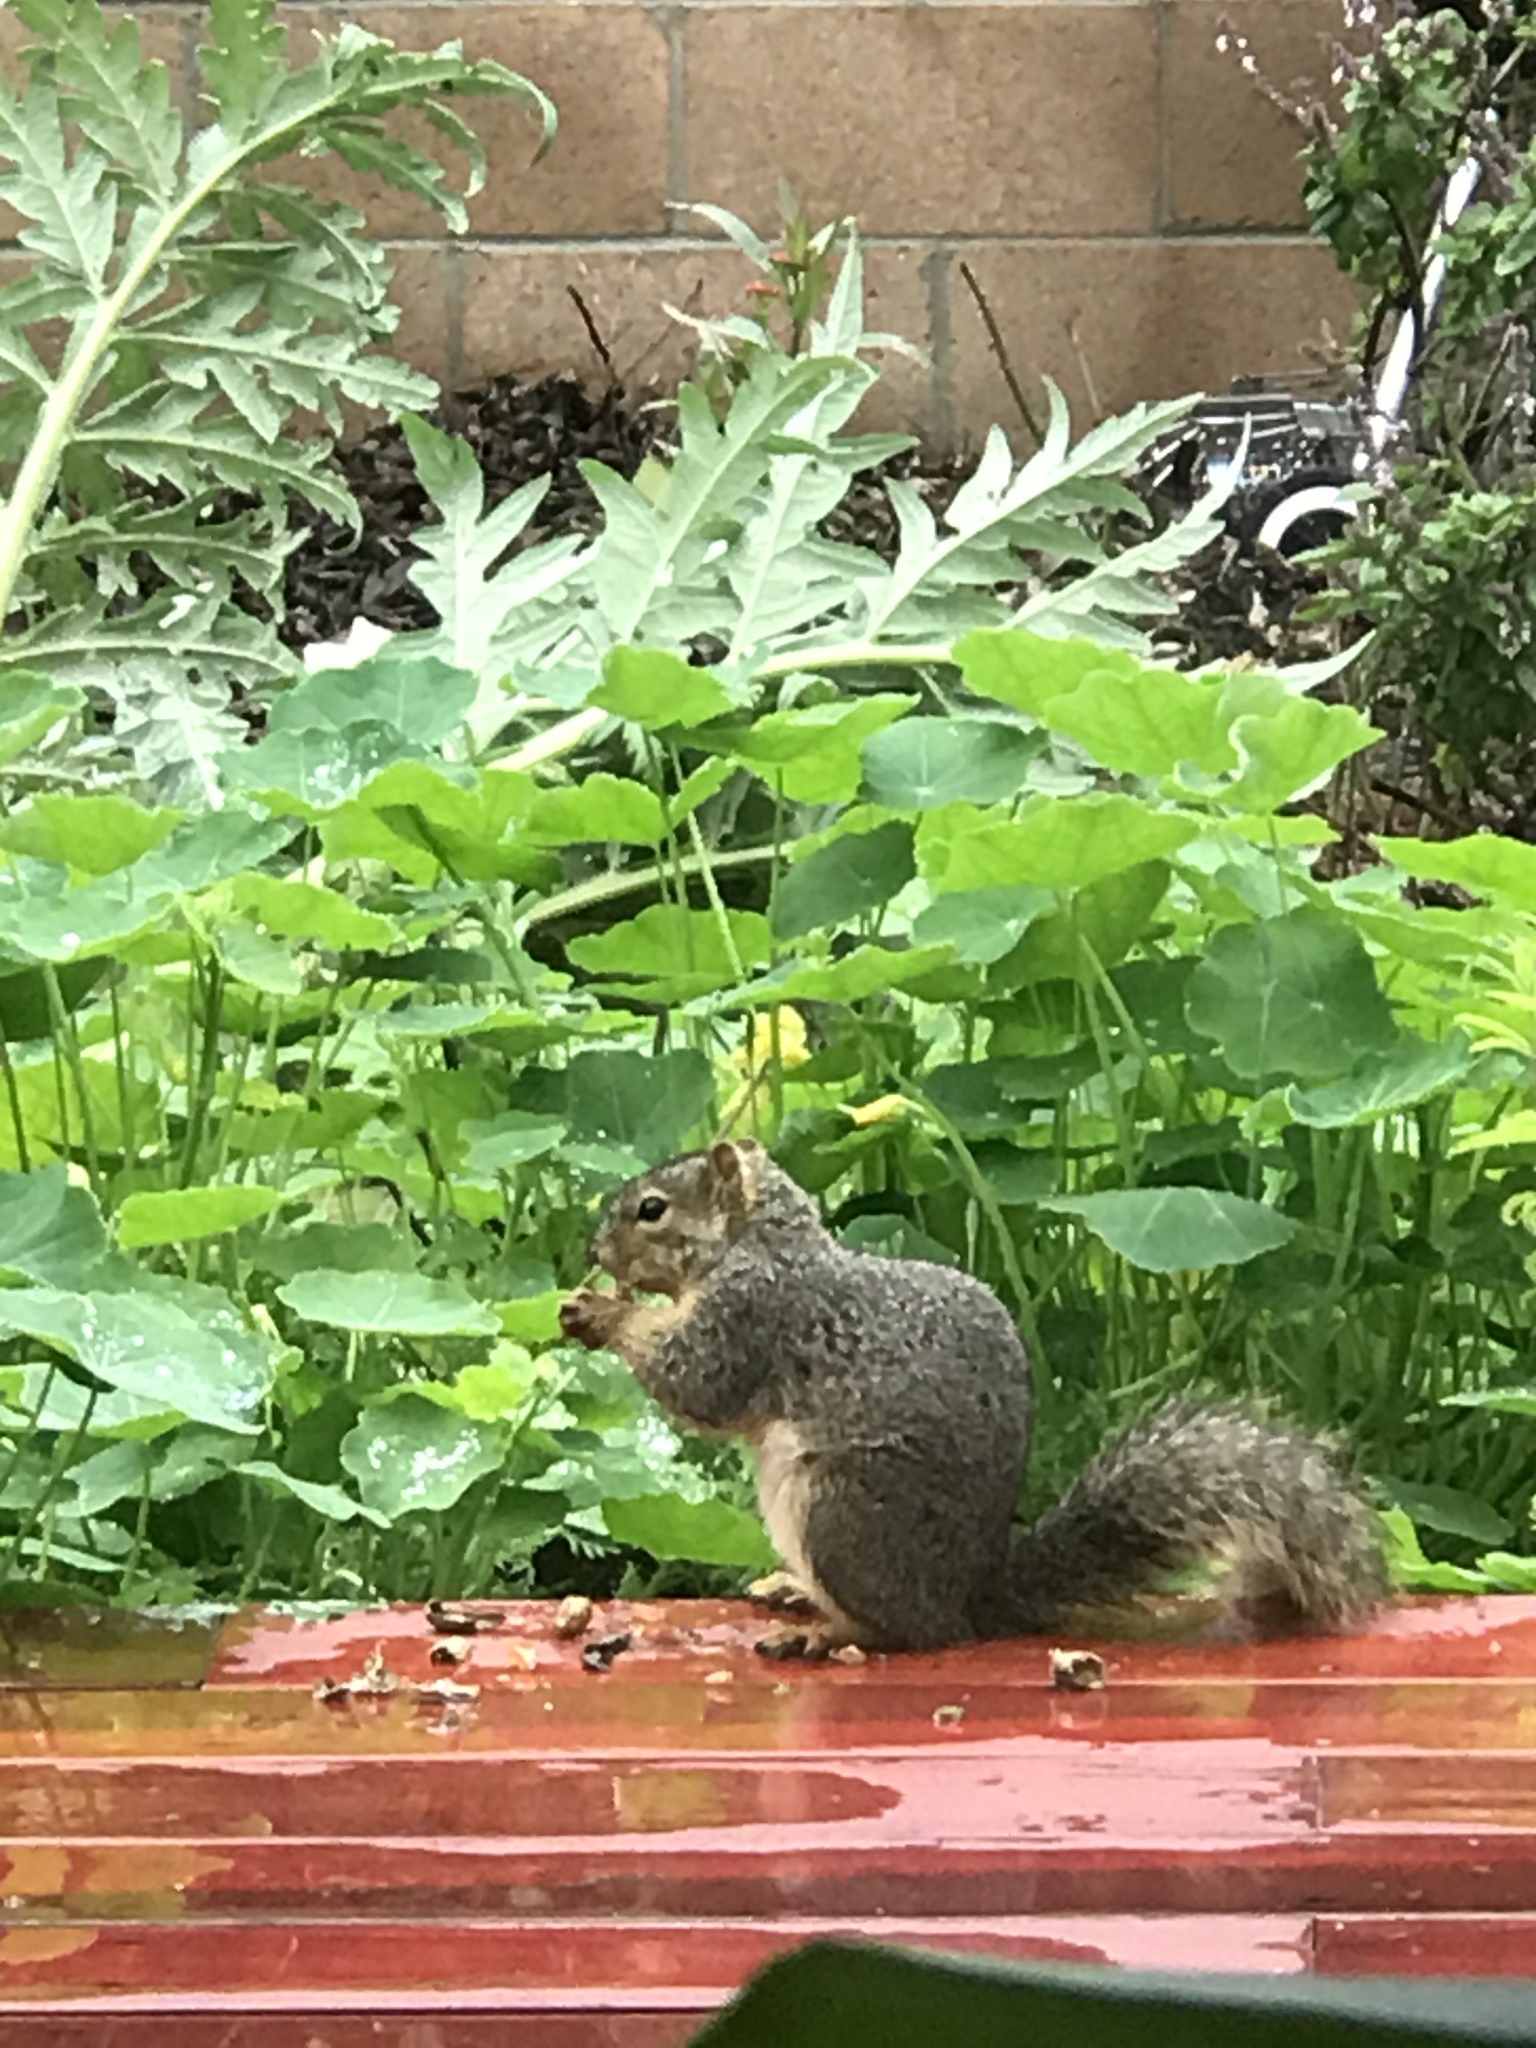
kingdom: Animalia
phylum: Chordata
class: Mammalia
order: Rodentia
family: Sciuridae
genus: Sciurus
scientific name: Sciurus niger
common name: Fox squirrel
